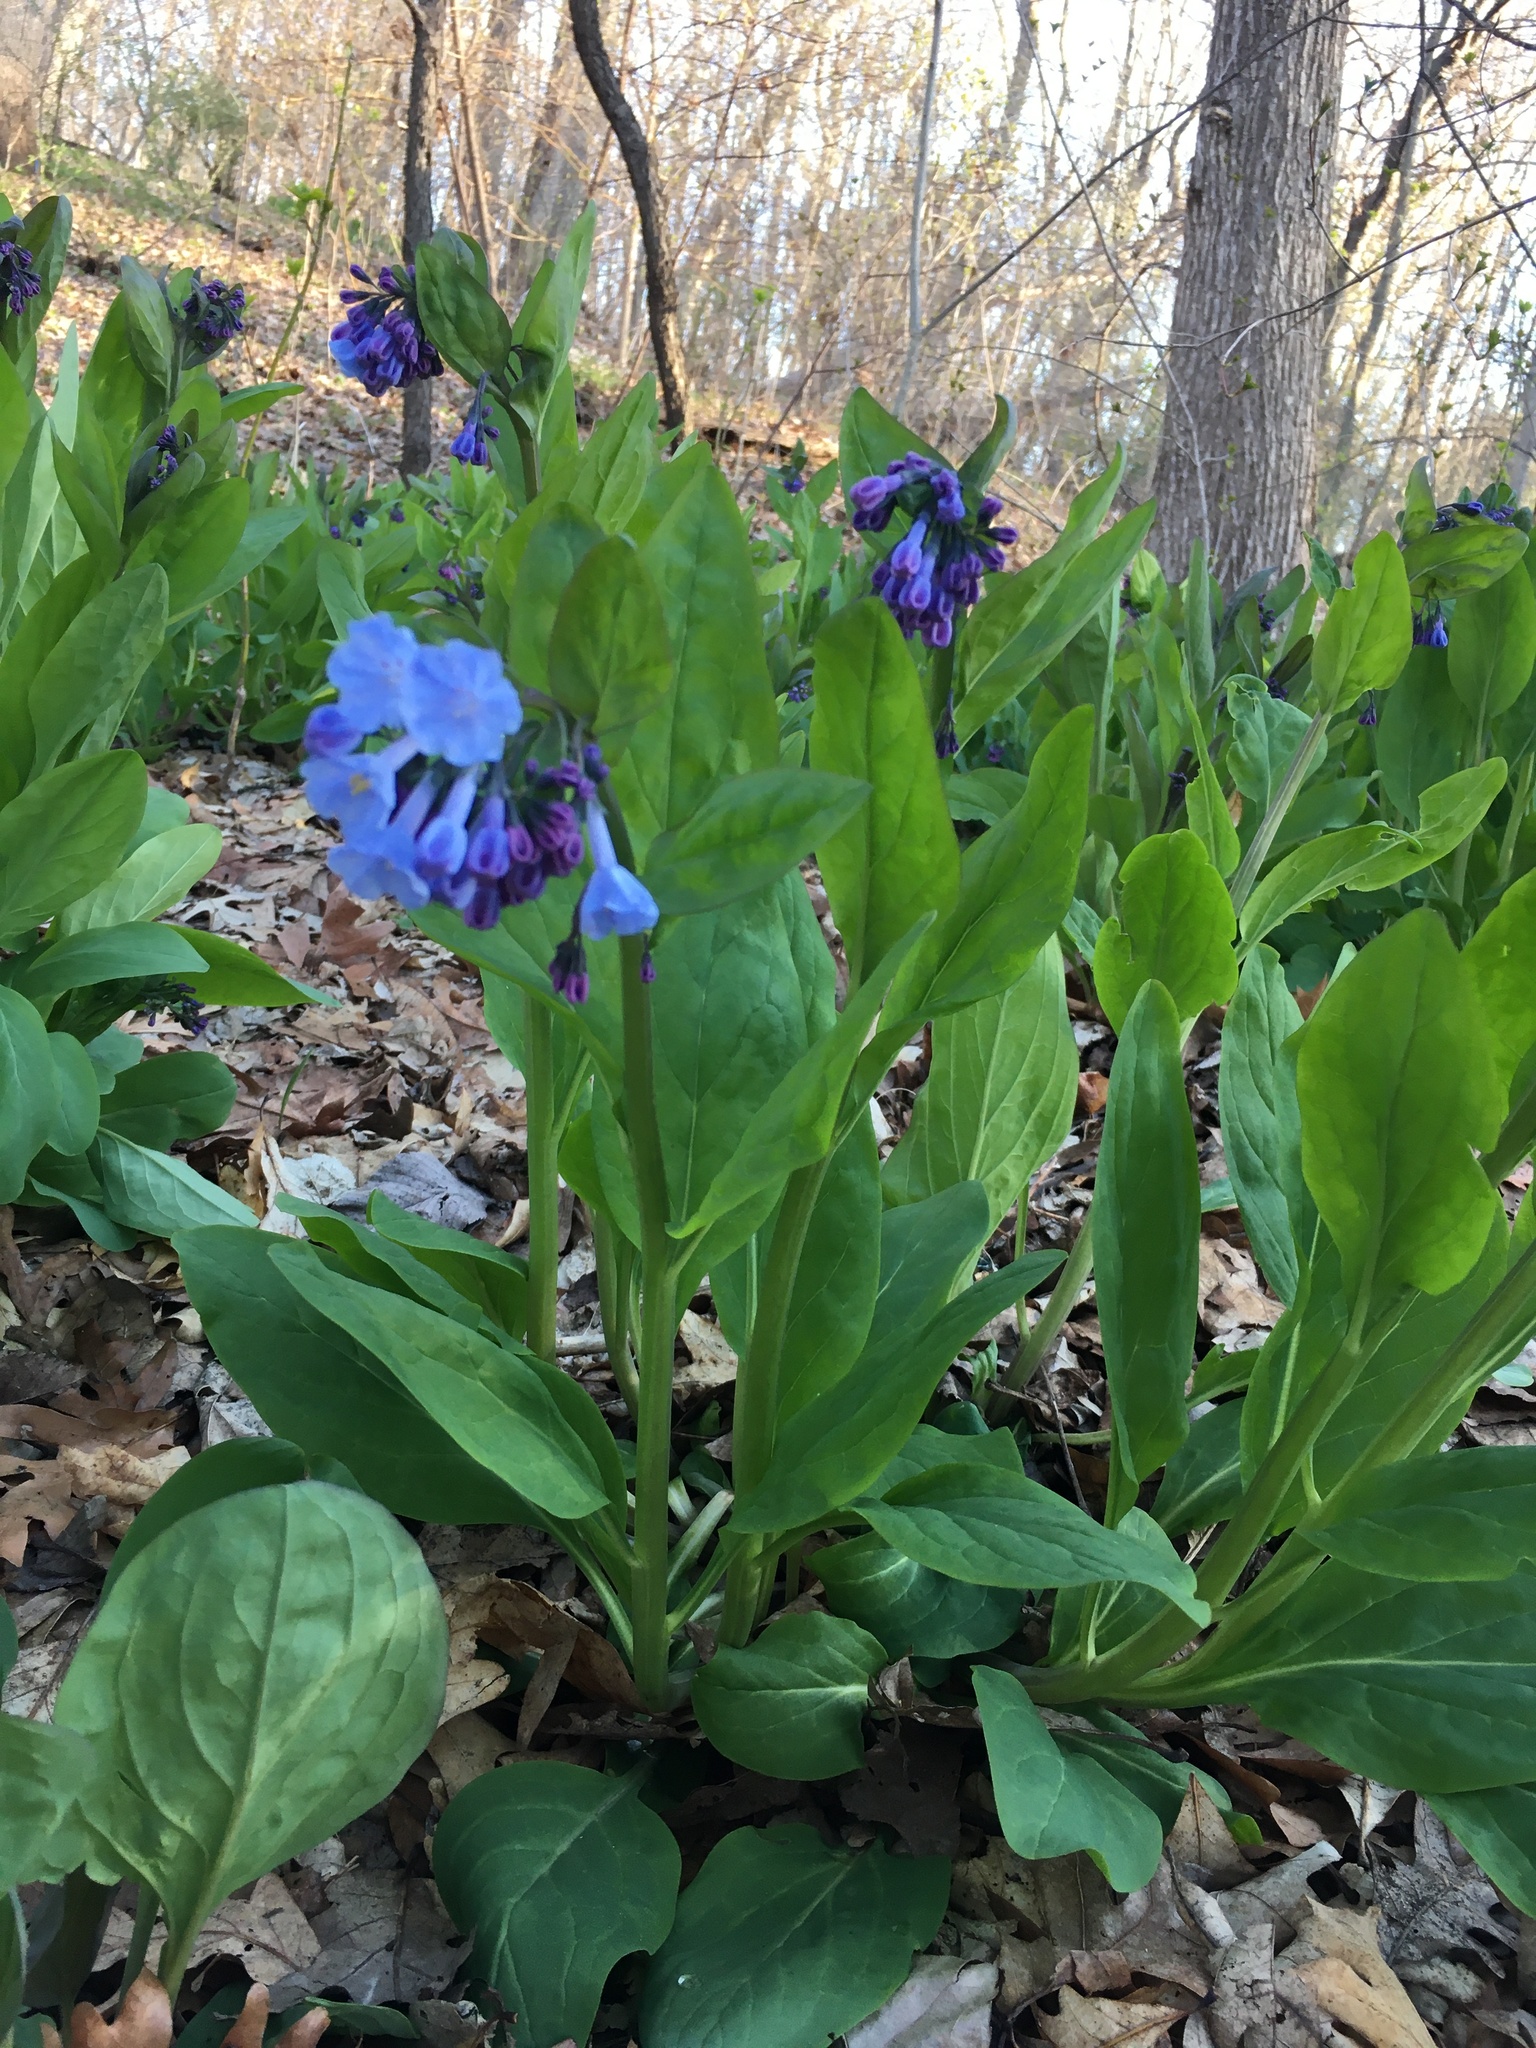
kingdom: Plantae
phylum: Tracheophyta
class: Magnoliopsida
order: Boraginales
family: Boraginaceae
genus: Mertensia
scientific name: Mertensia virginica
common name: Virginia bluebells
